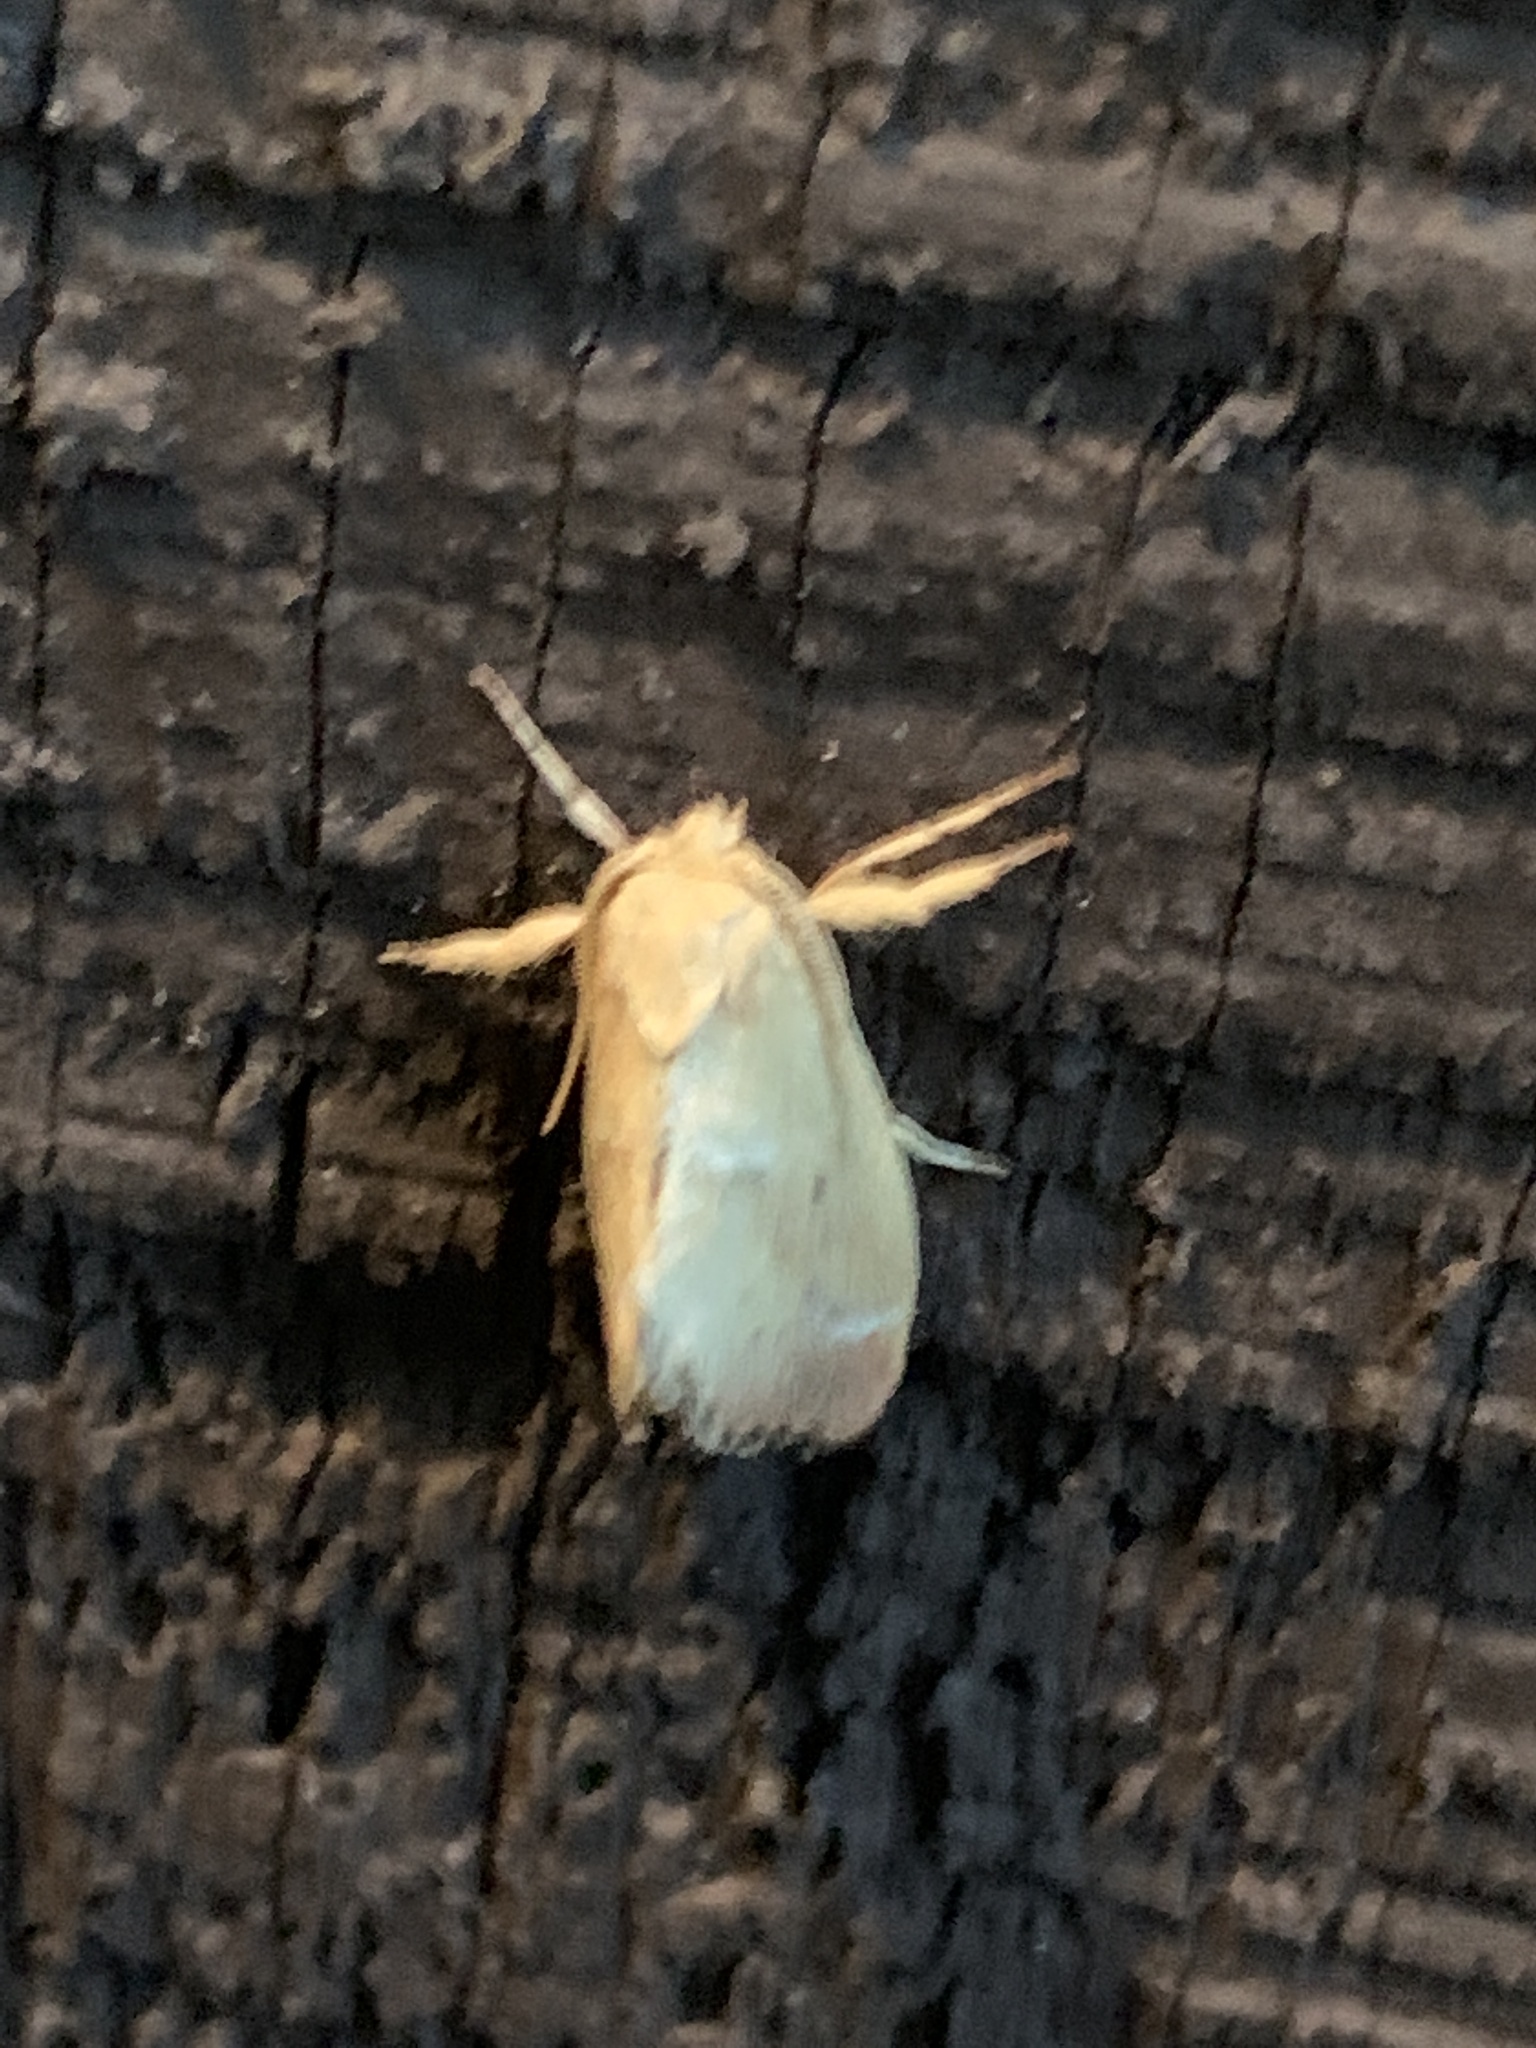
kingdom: Animalia
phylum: Arthropoda
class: Insecta
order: Lepidoptera
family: Limacodidae
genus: Adoneta
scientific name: Adoneta bicaudata
